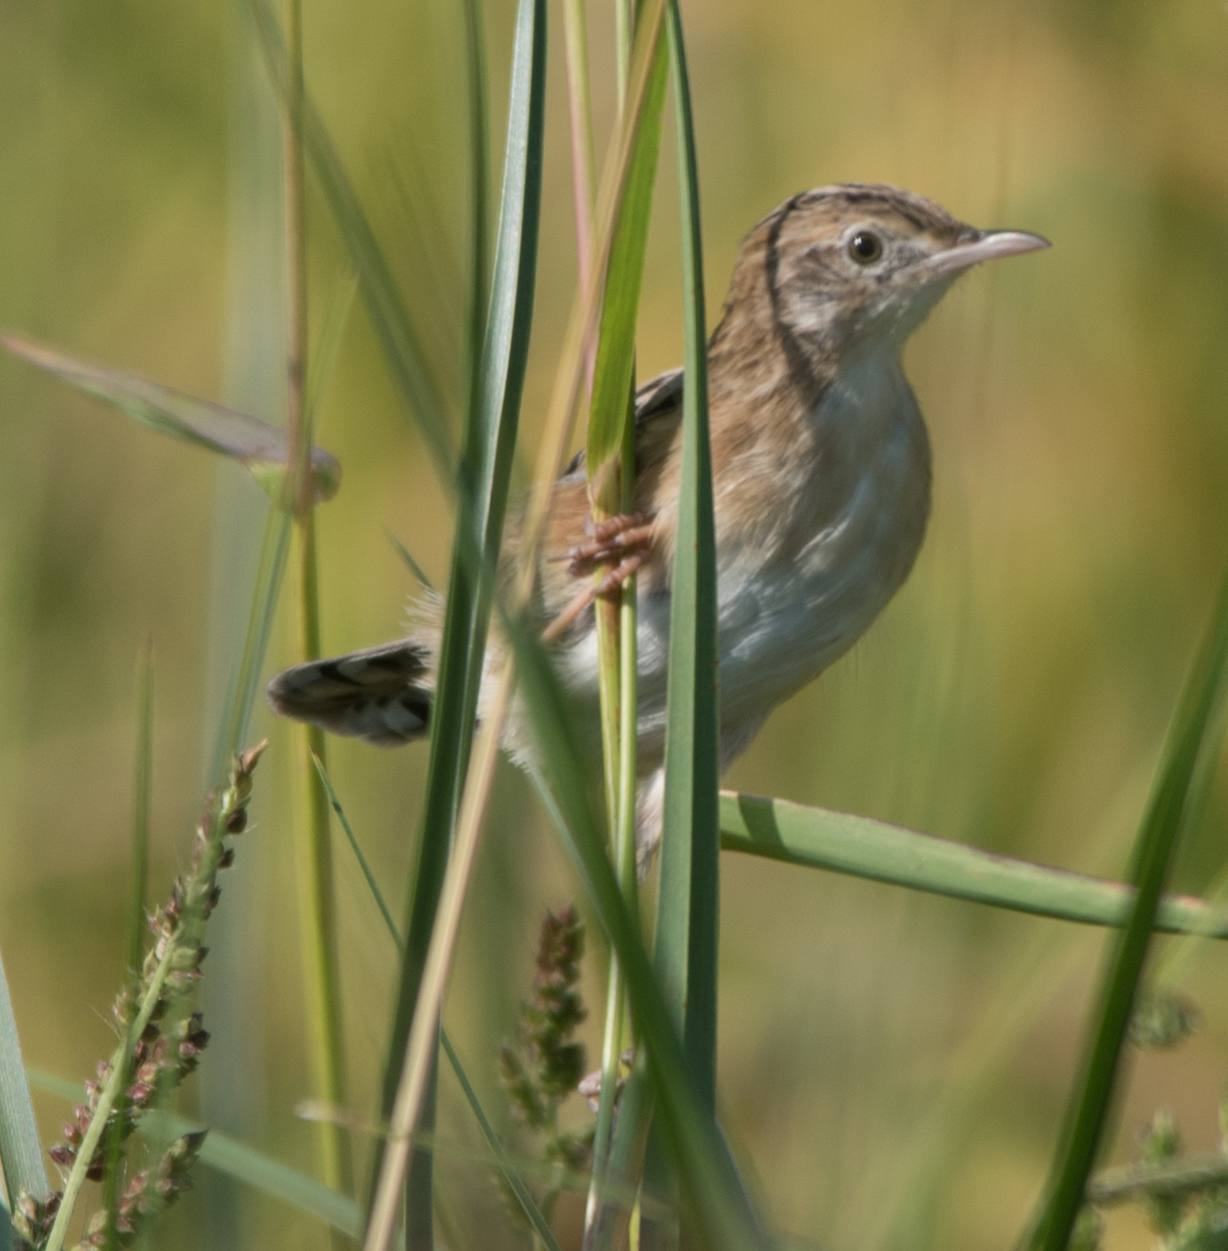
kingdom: Animalia
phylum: Chordata
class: Aves
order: Passeriformes
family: Cisticolidae
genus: Cisticola
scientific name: Cisticola juncidis
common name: Zitting cisticola
